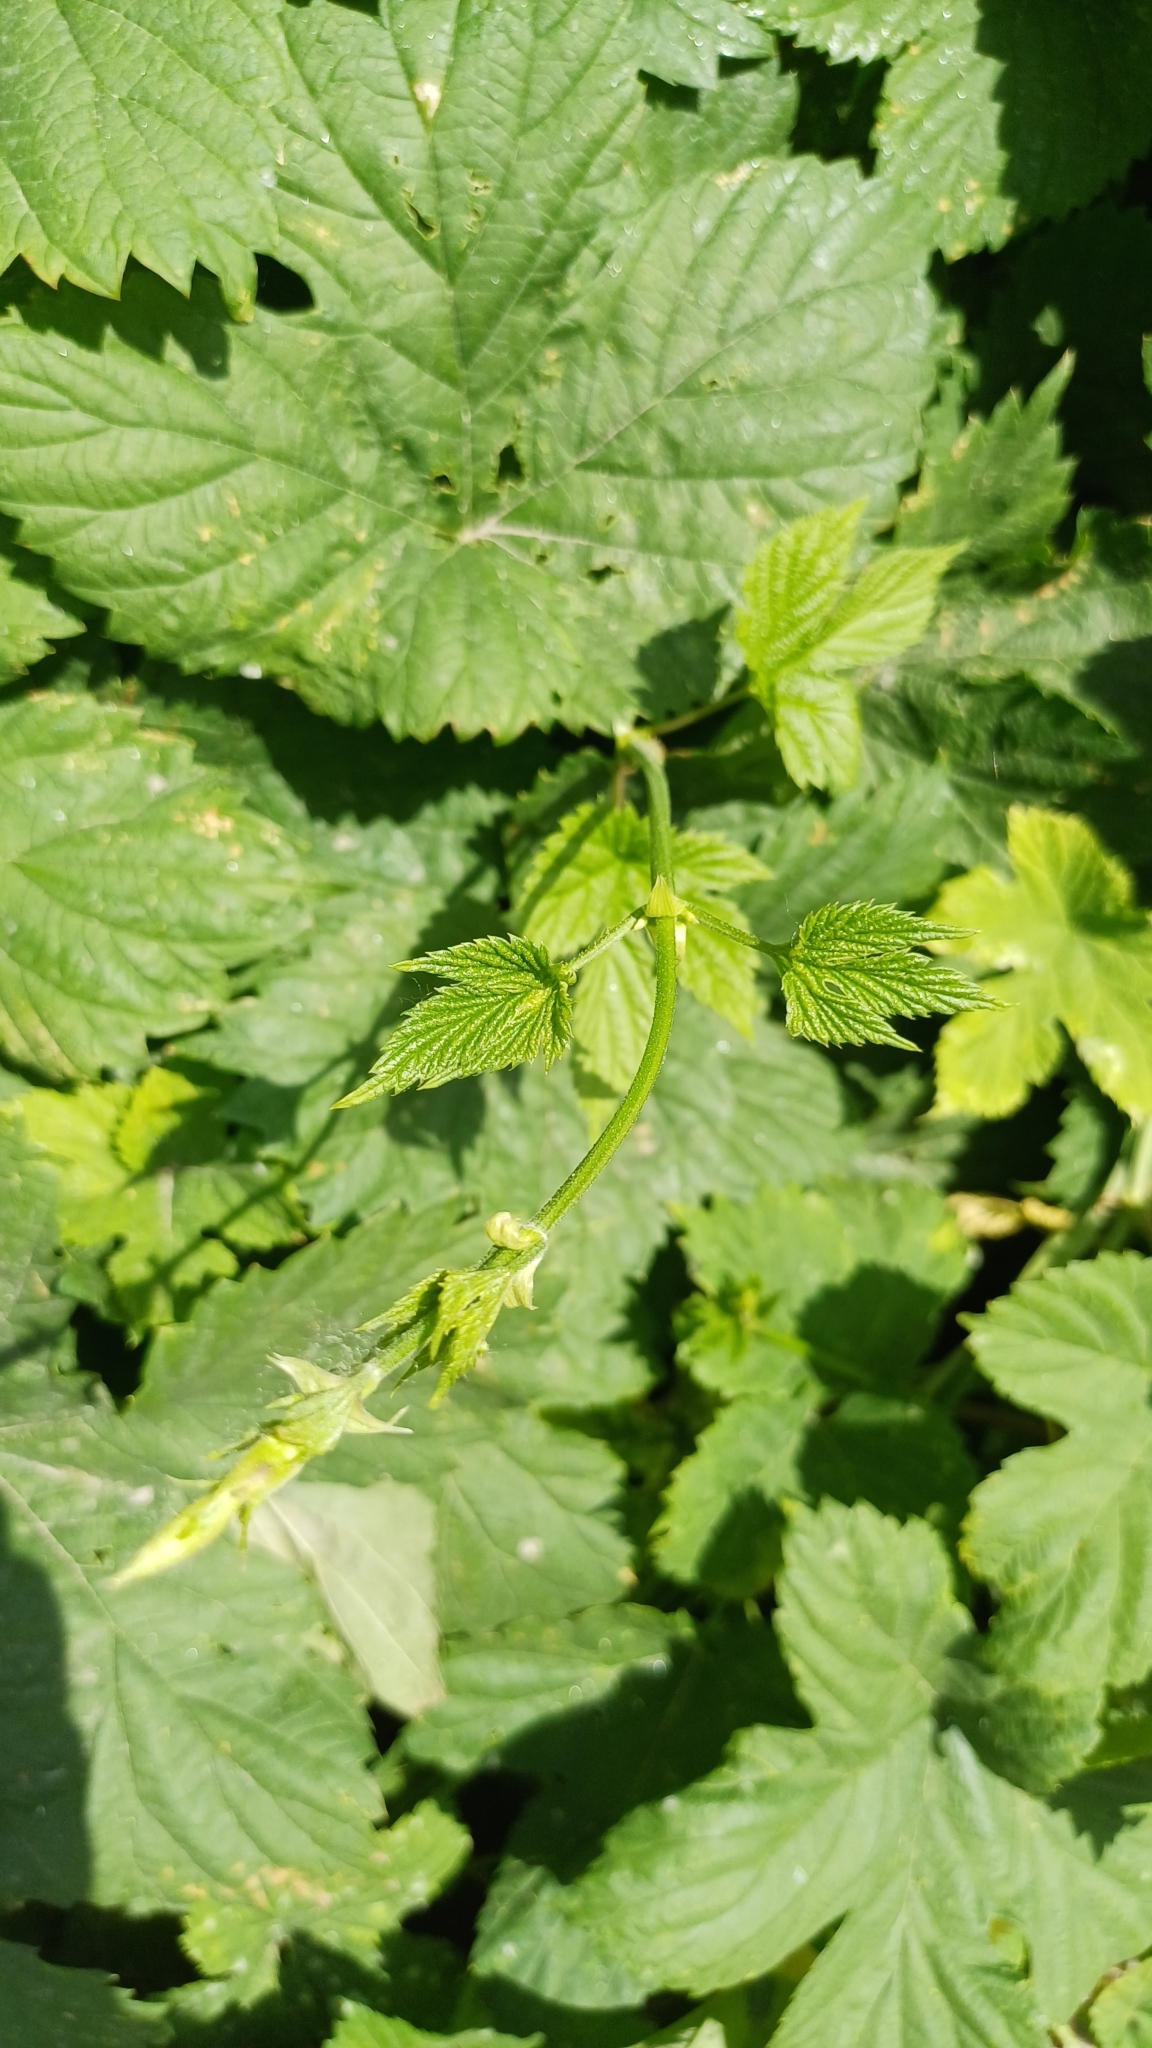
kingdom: Plantae
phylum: Tracheophyta
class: Magnoliopsida
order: Rosales
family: Cannabaceae
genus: Humulus
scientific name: Humulus lupulus
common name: Hop
